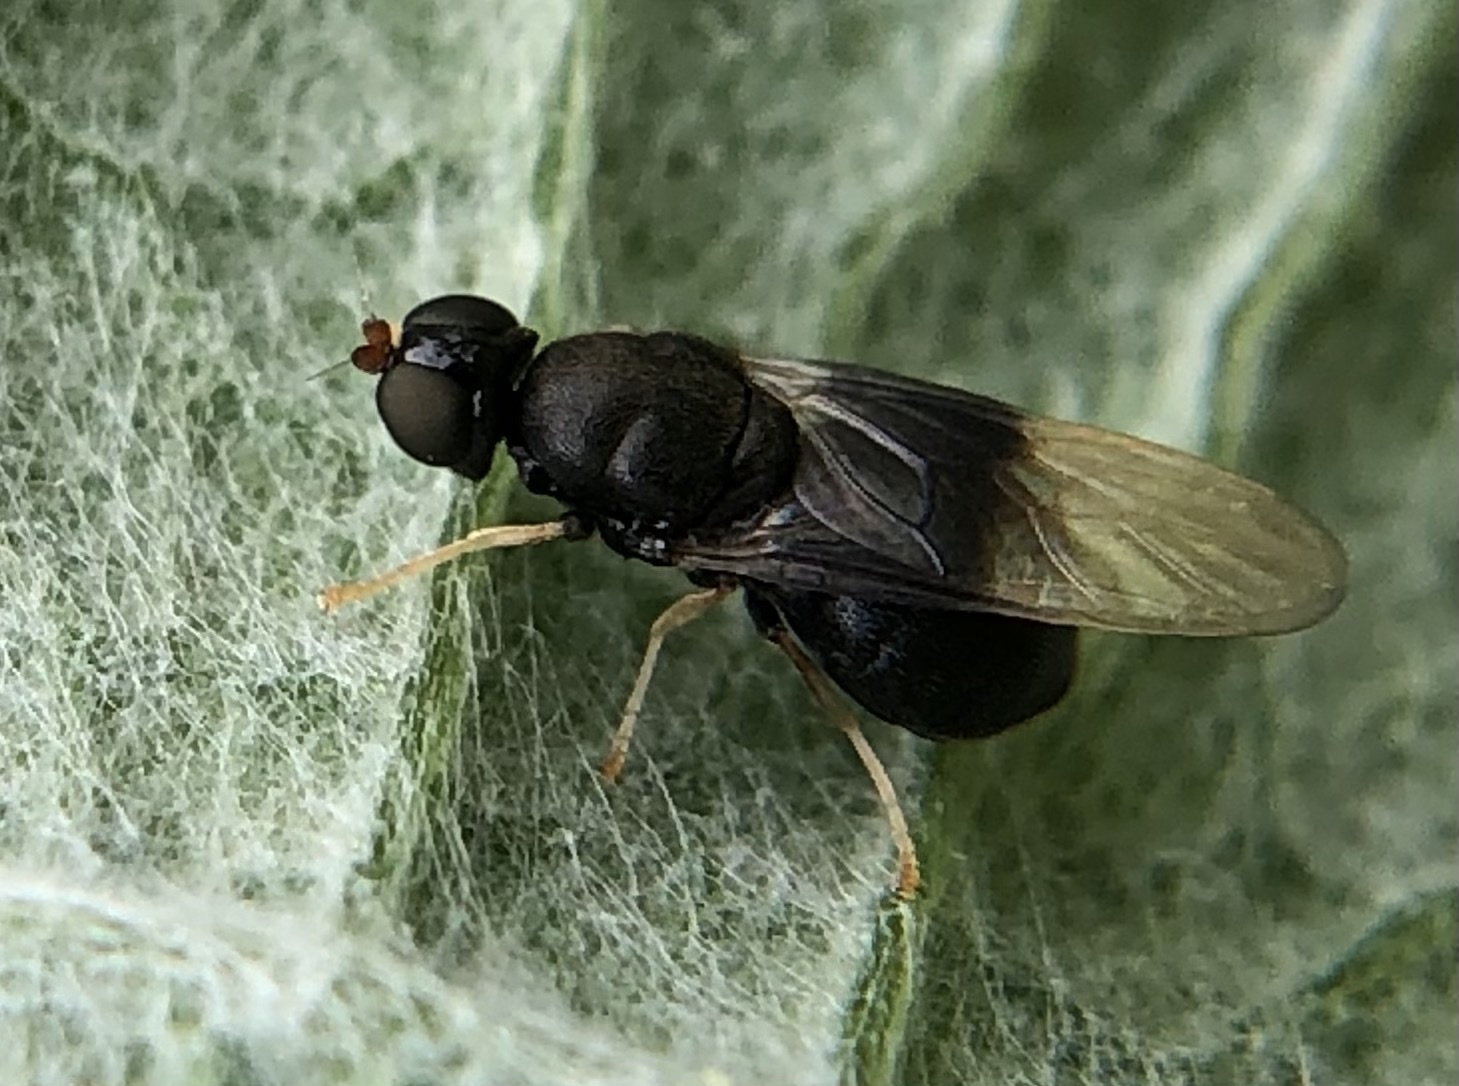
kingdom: Animalia
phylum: Arthropoda
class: Insecta
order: Diptera
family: Stratiomyidae
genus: Pachygaster
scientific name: Pachygaster atra
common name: Dark-winged black
